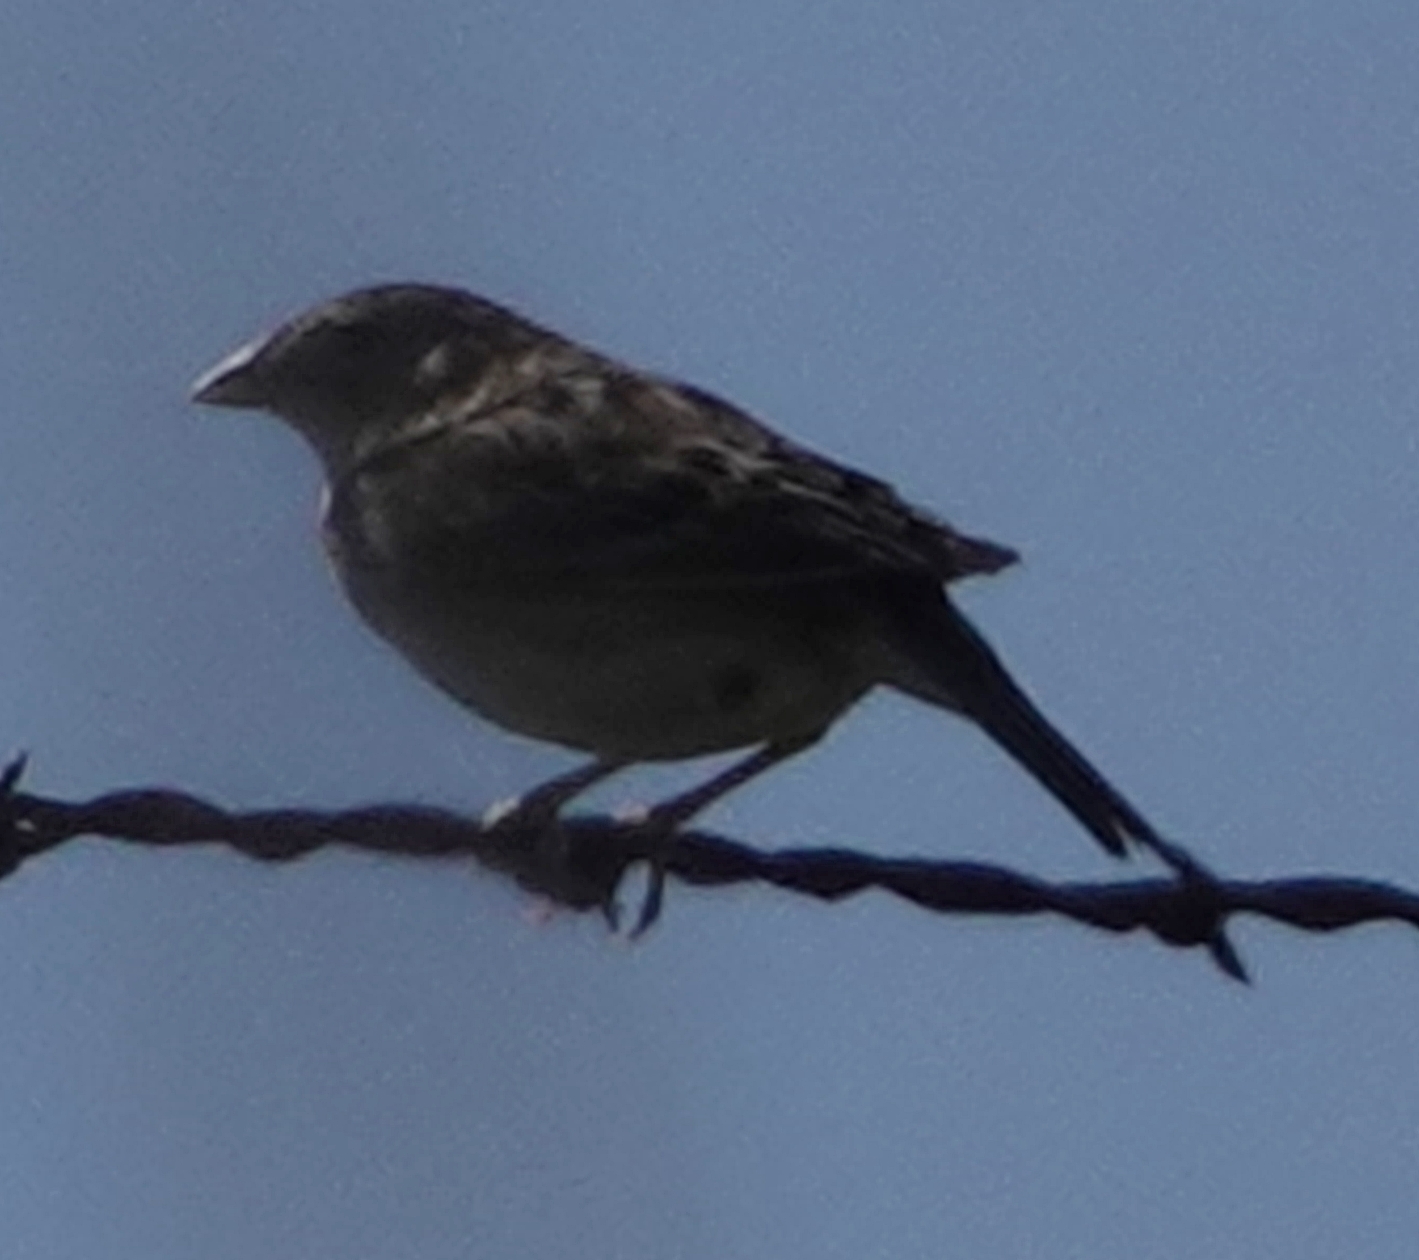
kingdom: Animalia
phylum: Chordata
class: Aves
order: Passeriformes
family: Passerellidae
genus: Ammodramus
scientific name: Ammodramus savannarum
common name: Grasshopper sparrow
